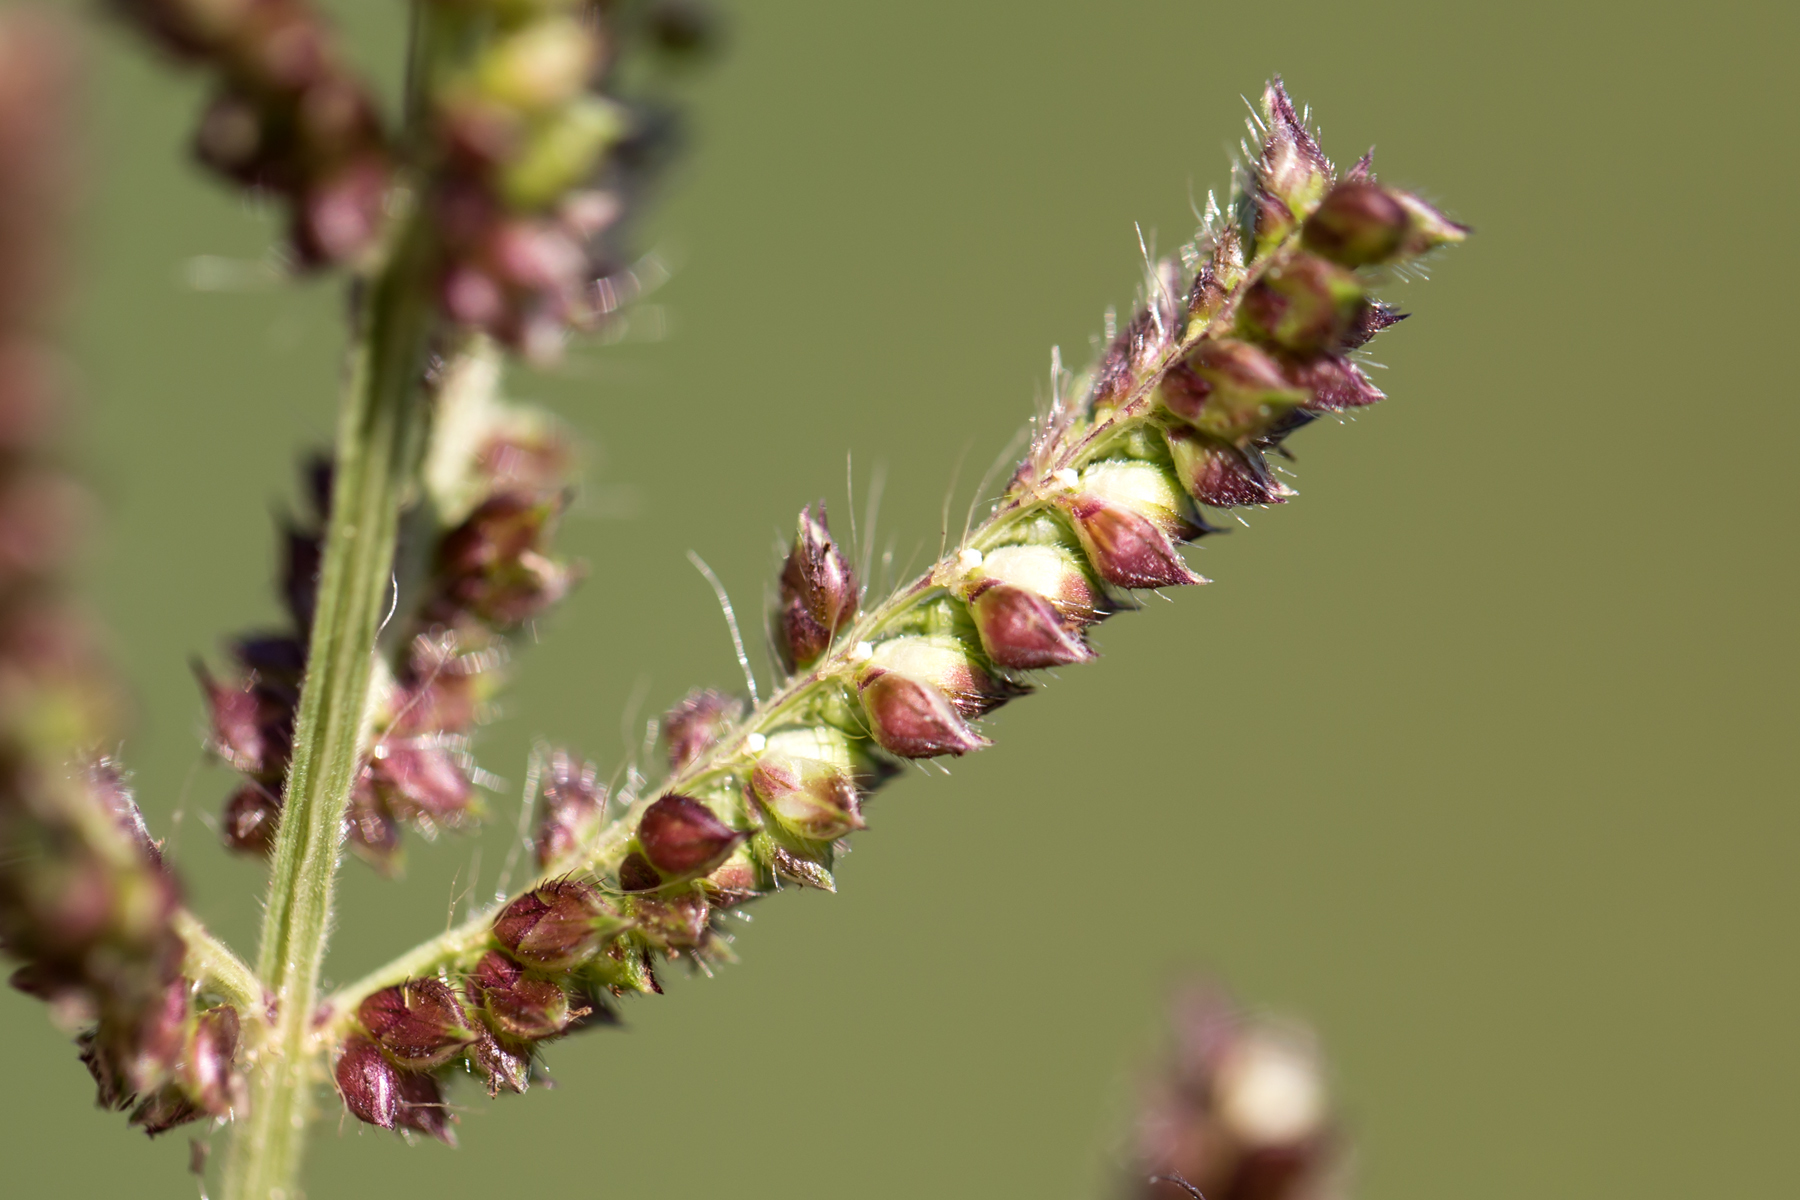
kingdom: Plantae
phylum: Tracheophyta
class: Liliopsida
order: Poales
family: Poaceae
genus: Echinochloa
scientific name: Echinochloa crus-galli
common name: Cockspur
